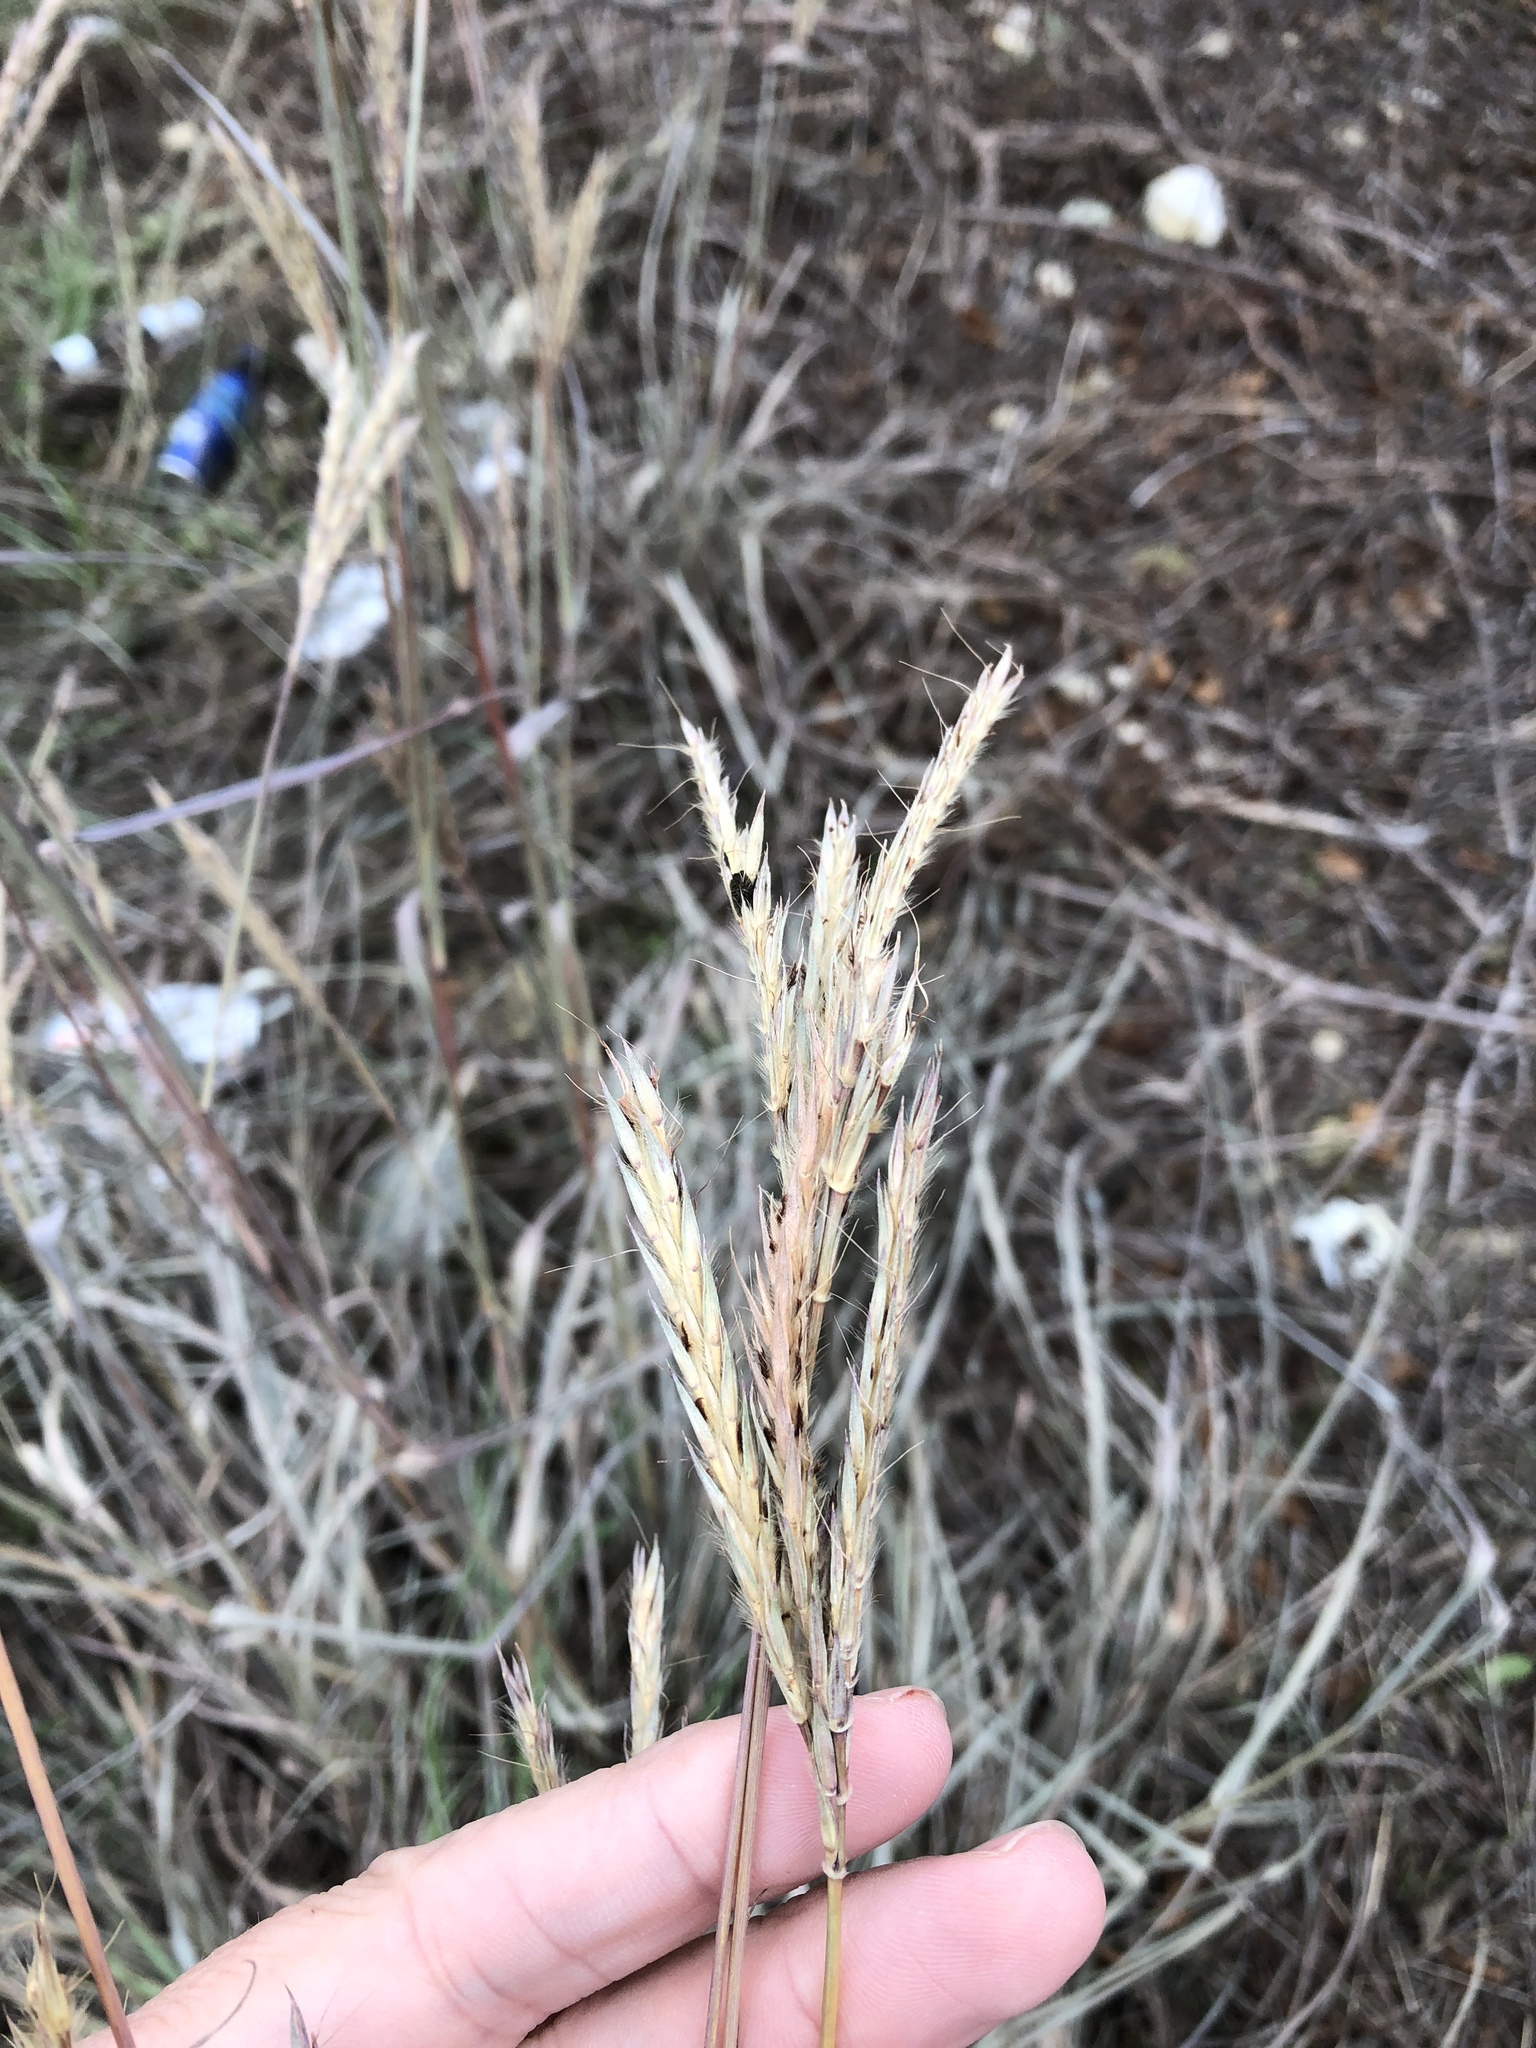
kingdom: Plantae
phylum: Tracheophyta
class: Liliopsida
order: Poales
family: Poaceae
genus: Andropogon
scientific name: Andropogon gerardi
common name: Big bluestem
